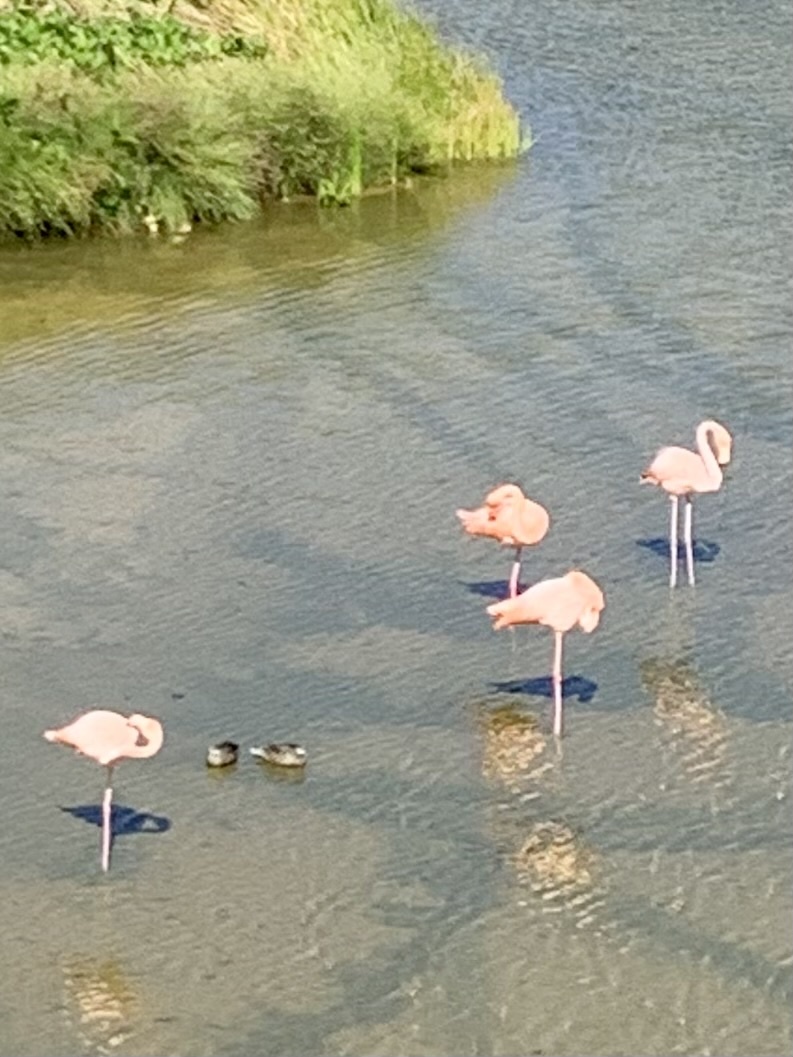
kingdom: Animalia
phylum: Chordata
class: Aves
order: Phoenicopteriformes
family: Phoenicopteridae
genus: Phoenicopterus
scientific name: Phoenicopterus ruber
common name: American flamingo
